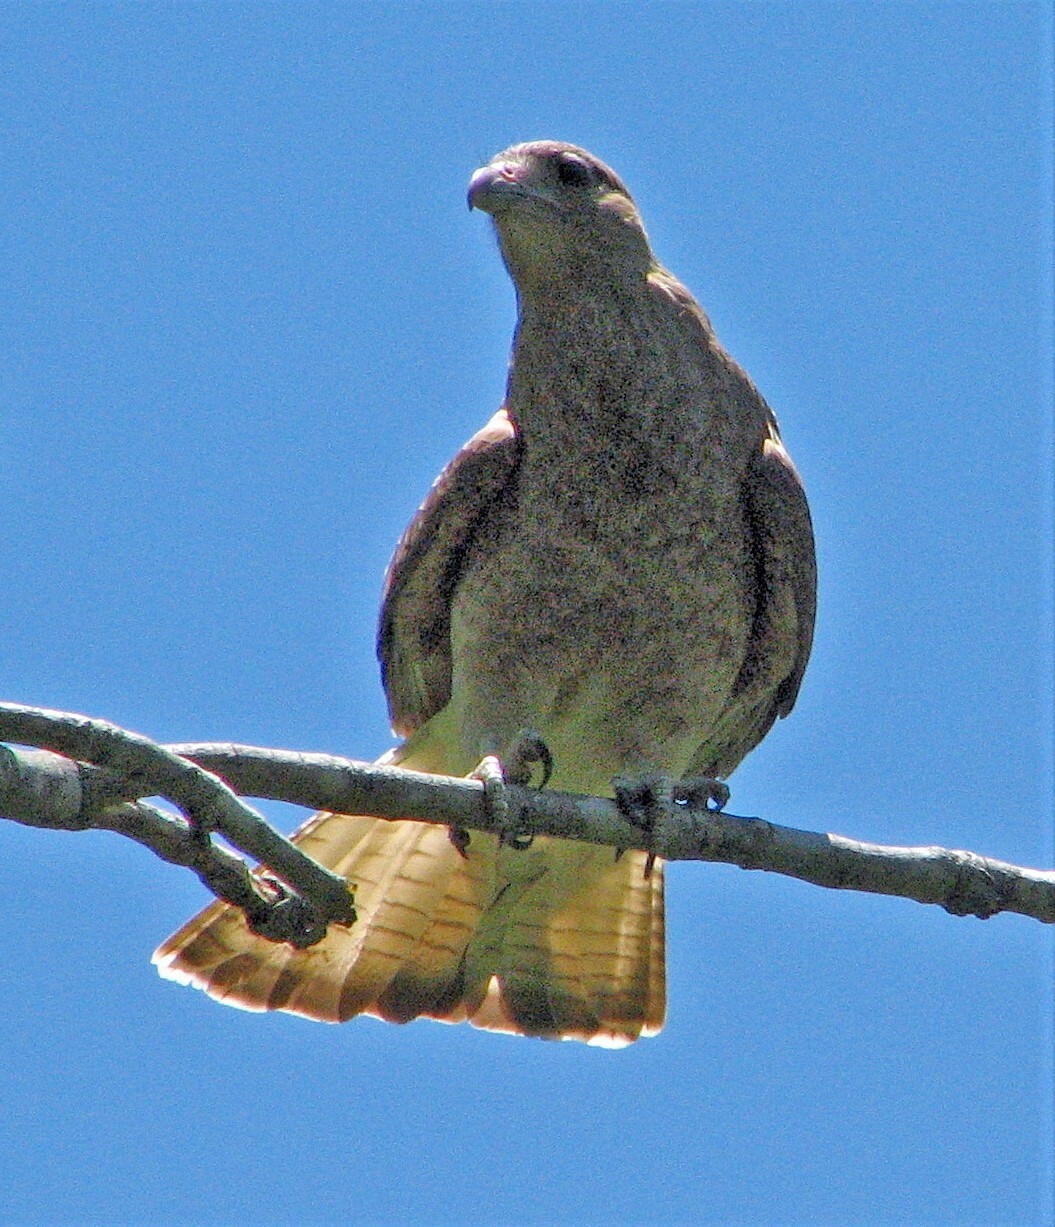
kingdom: Animalia
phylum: Chordata
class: Aves
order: Falconiformes
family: Falconidae
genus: Daptrius
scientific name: Daptrius
